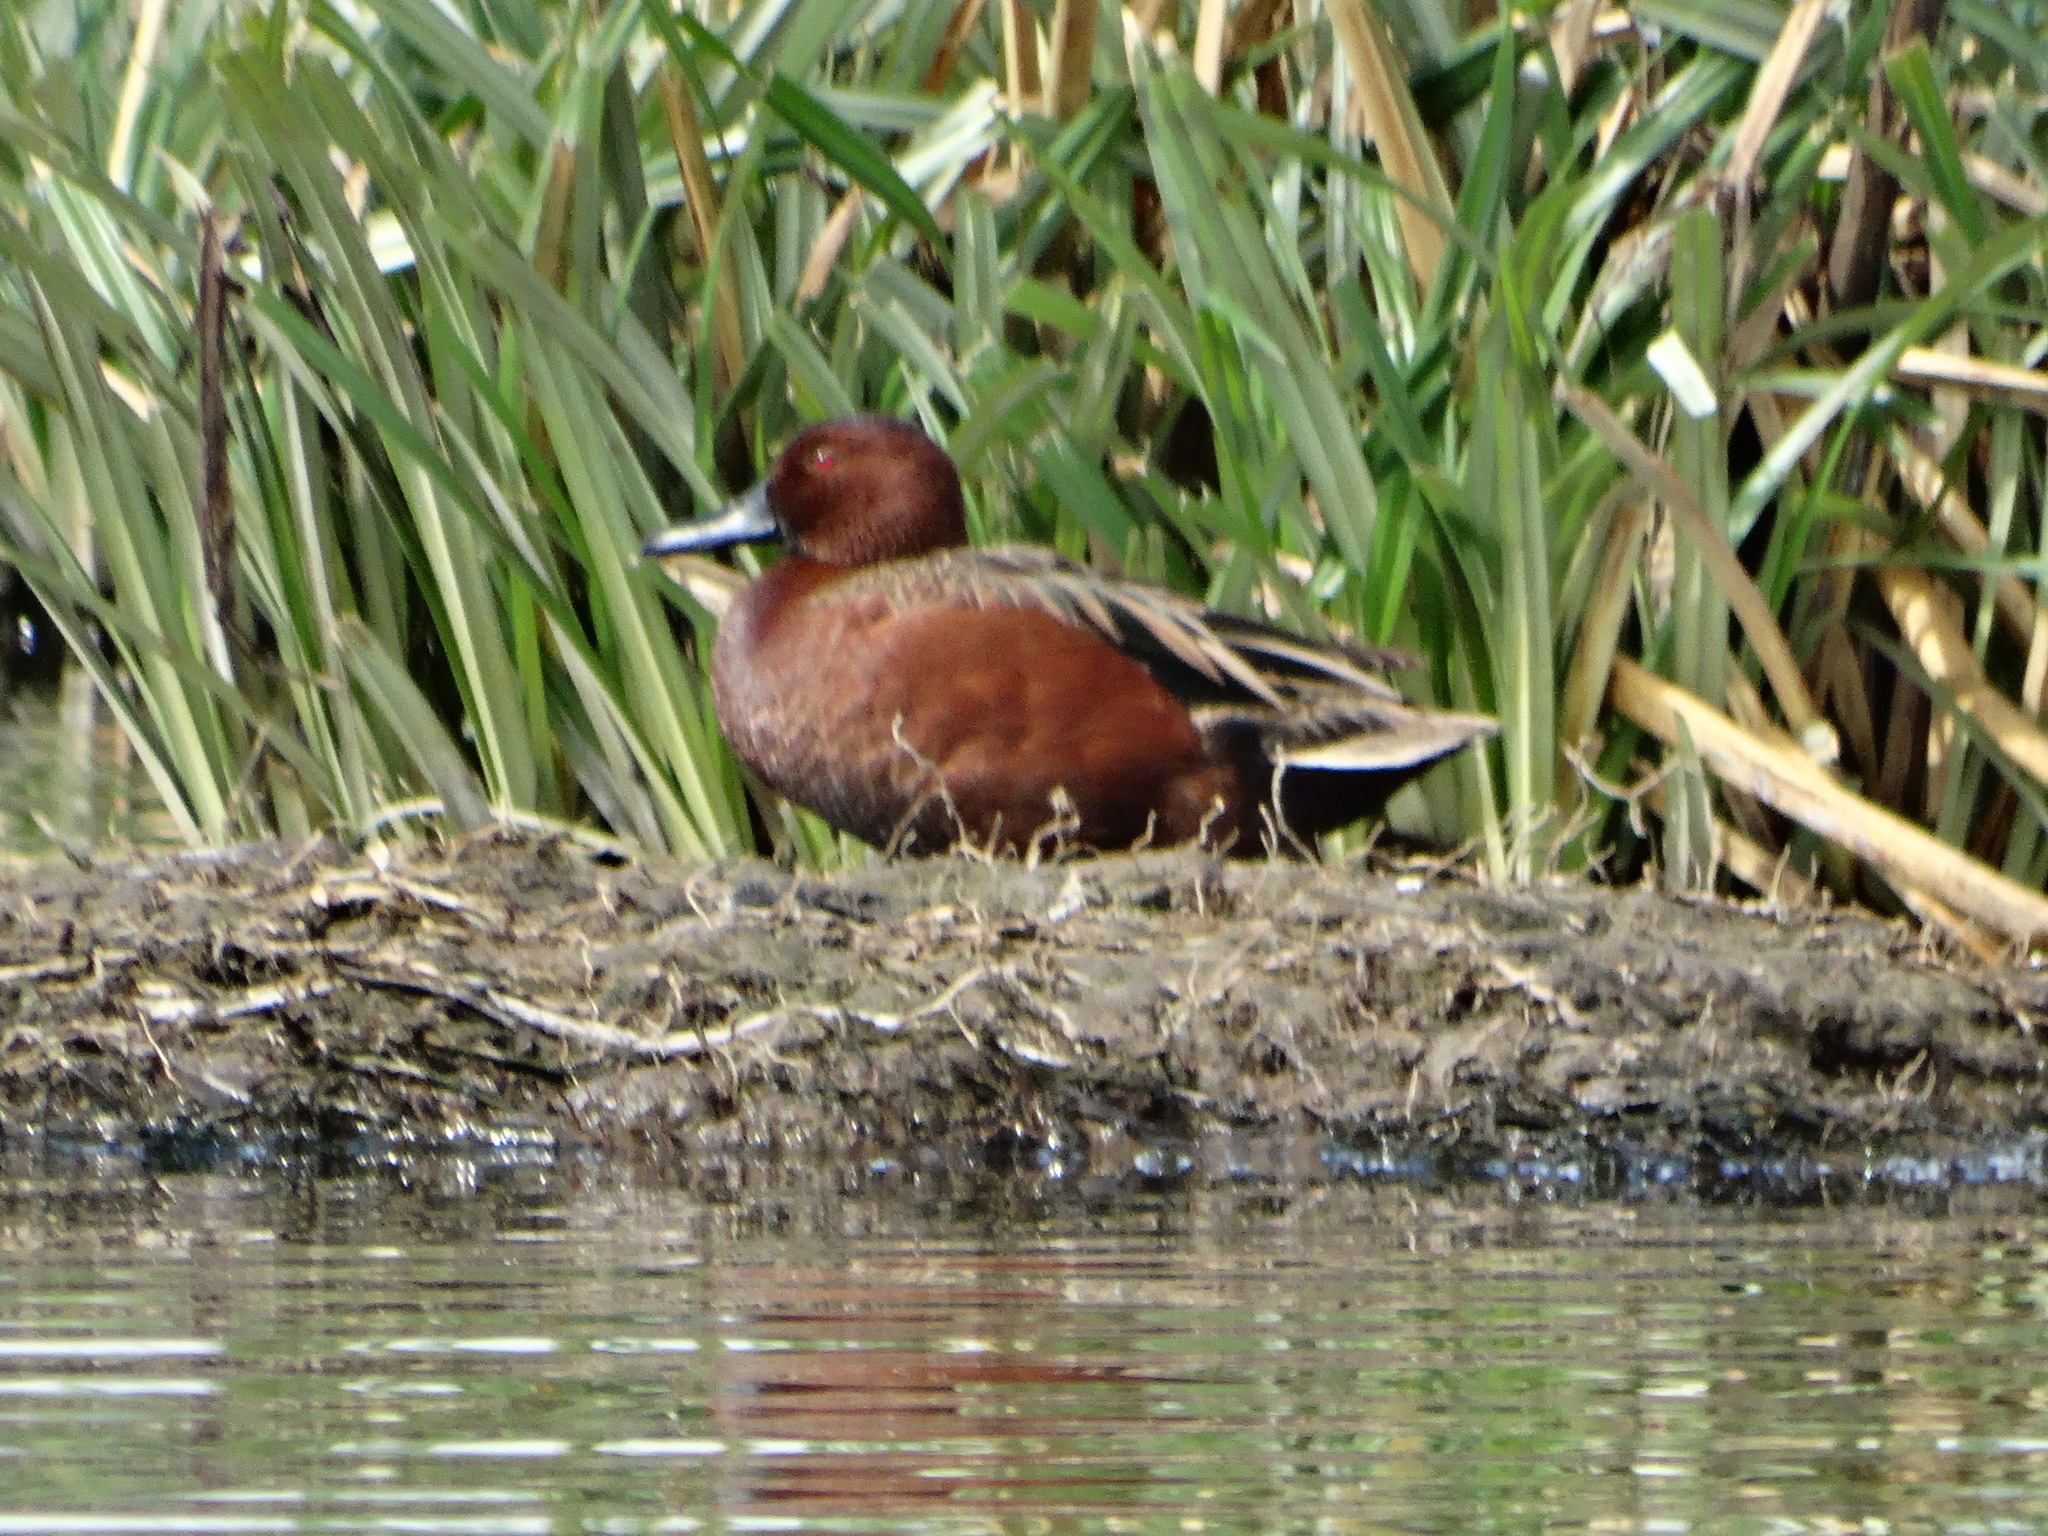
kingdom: Animalia
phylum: Chordata
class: Aves
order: Anseriformes
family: Anatidae
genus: Spatula
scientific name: Spatula cyanoptera
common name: Cinnamon teal
